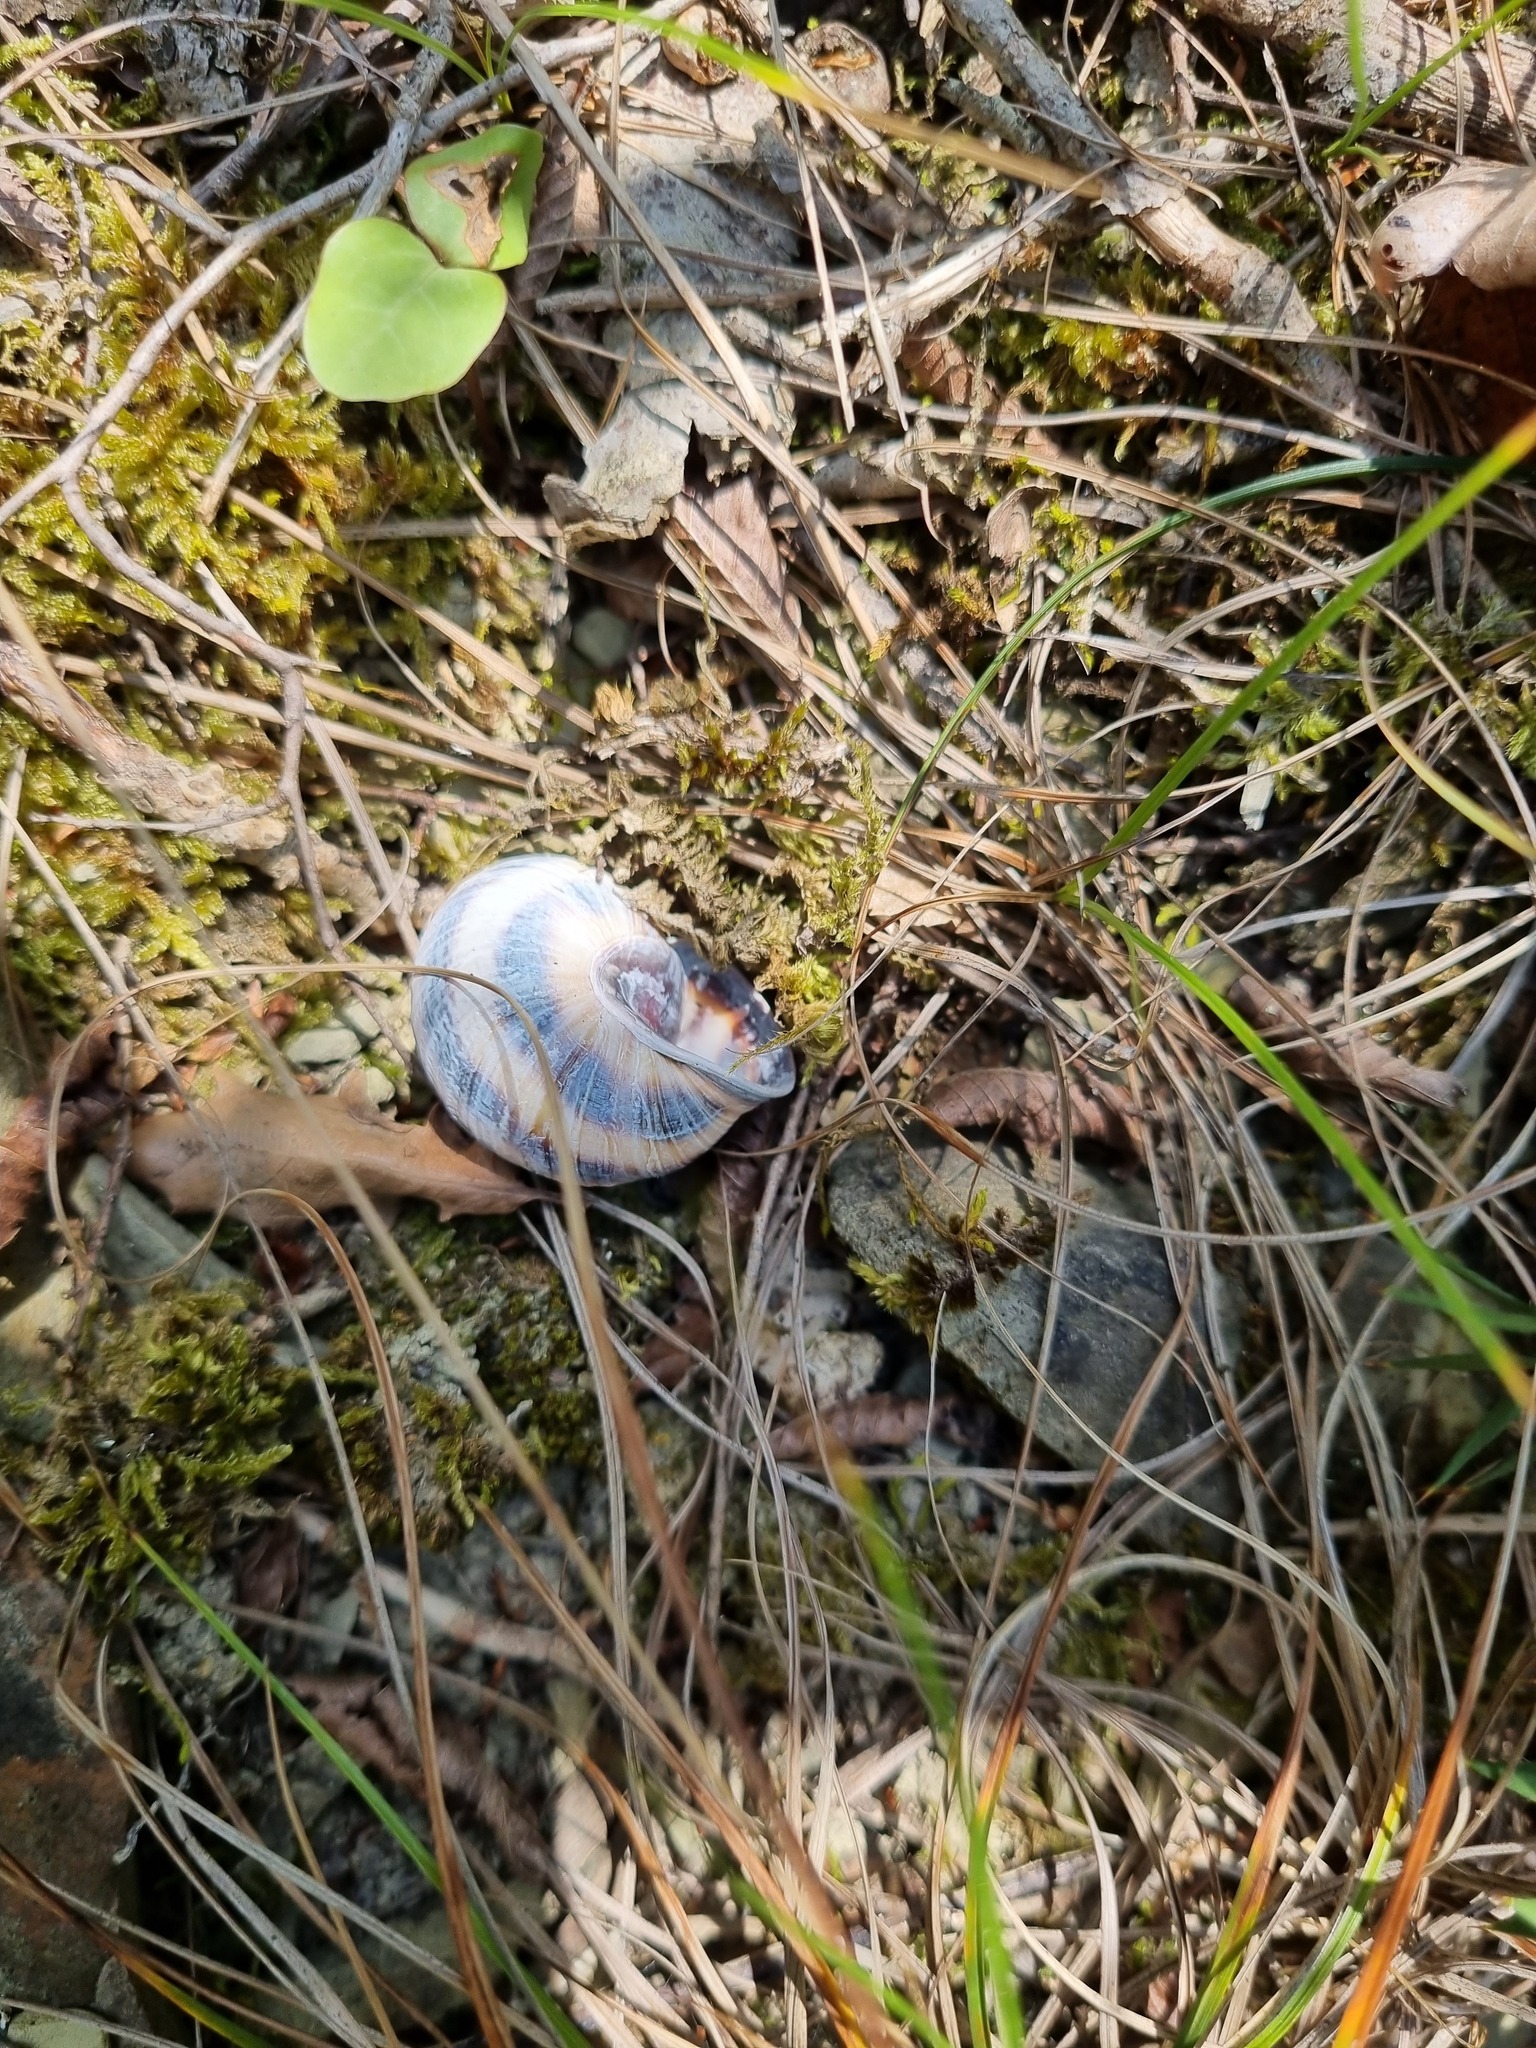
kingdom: Animalia
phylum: Mollusca
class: Gastropoda
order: Stylommatophora
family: Helicidae
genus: Caucasotachea
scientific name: Caucasotachea atrolabiata
